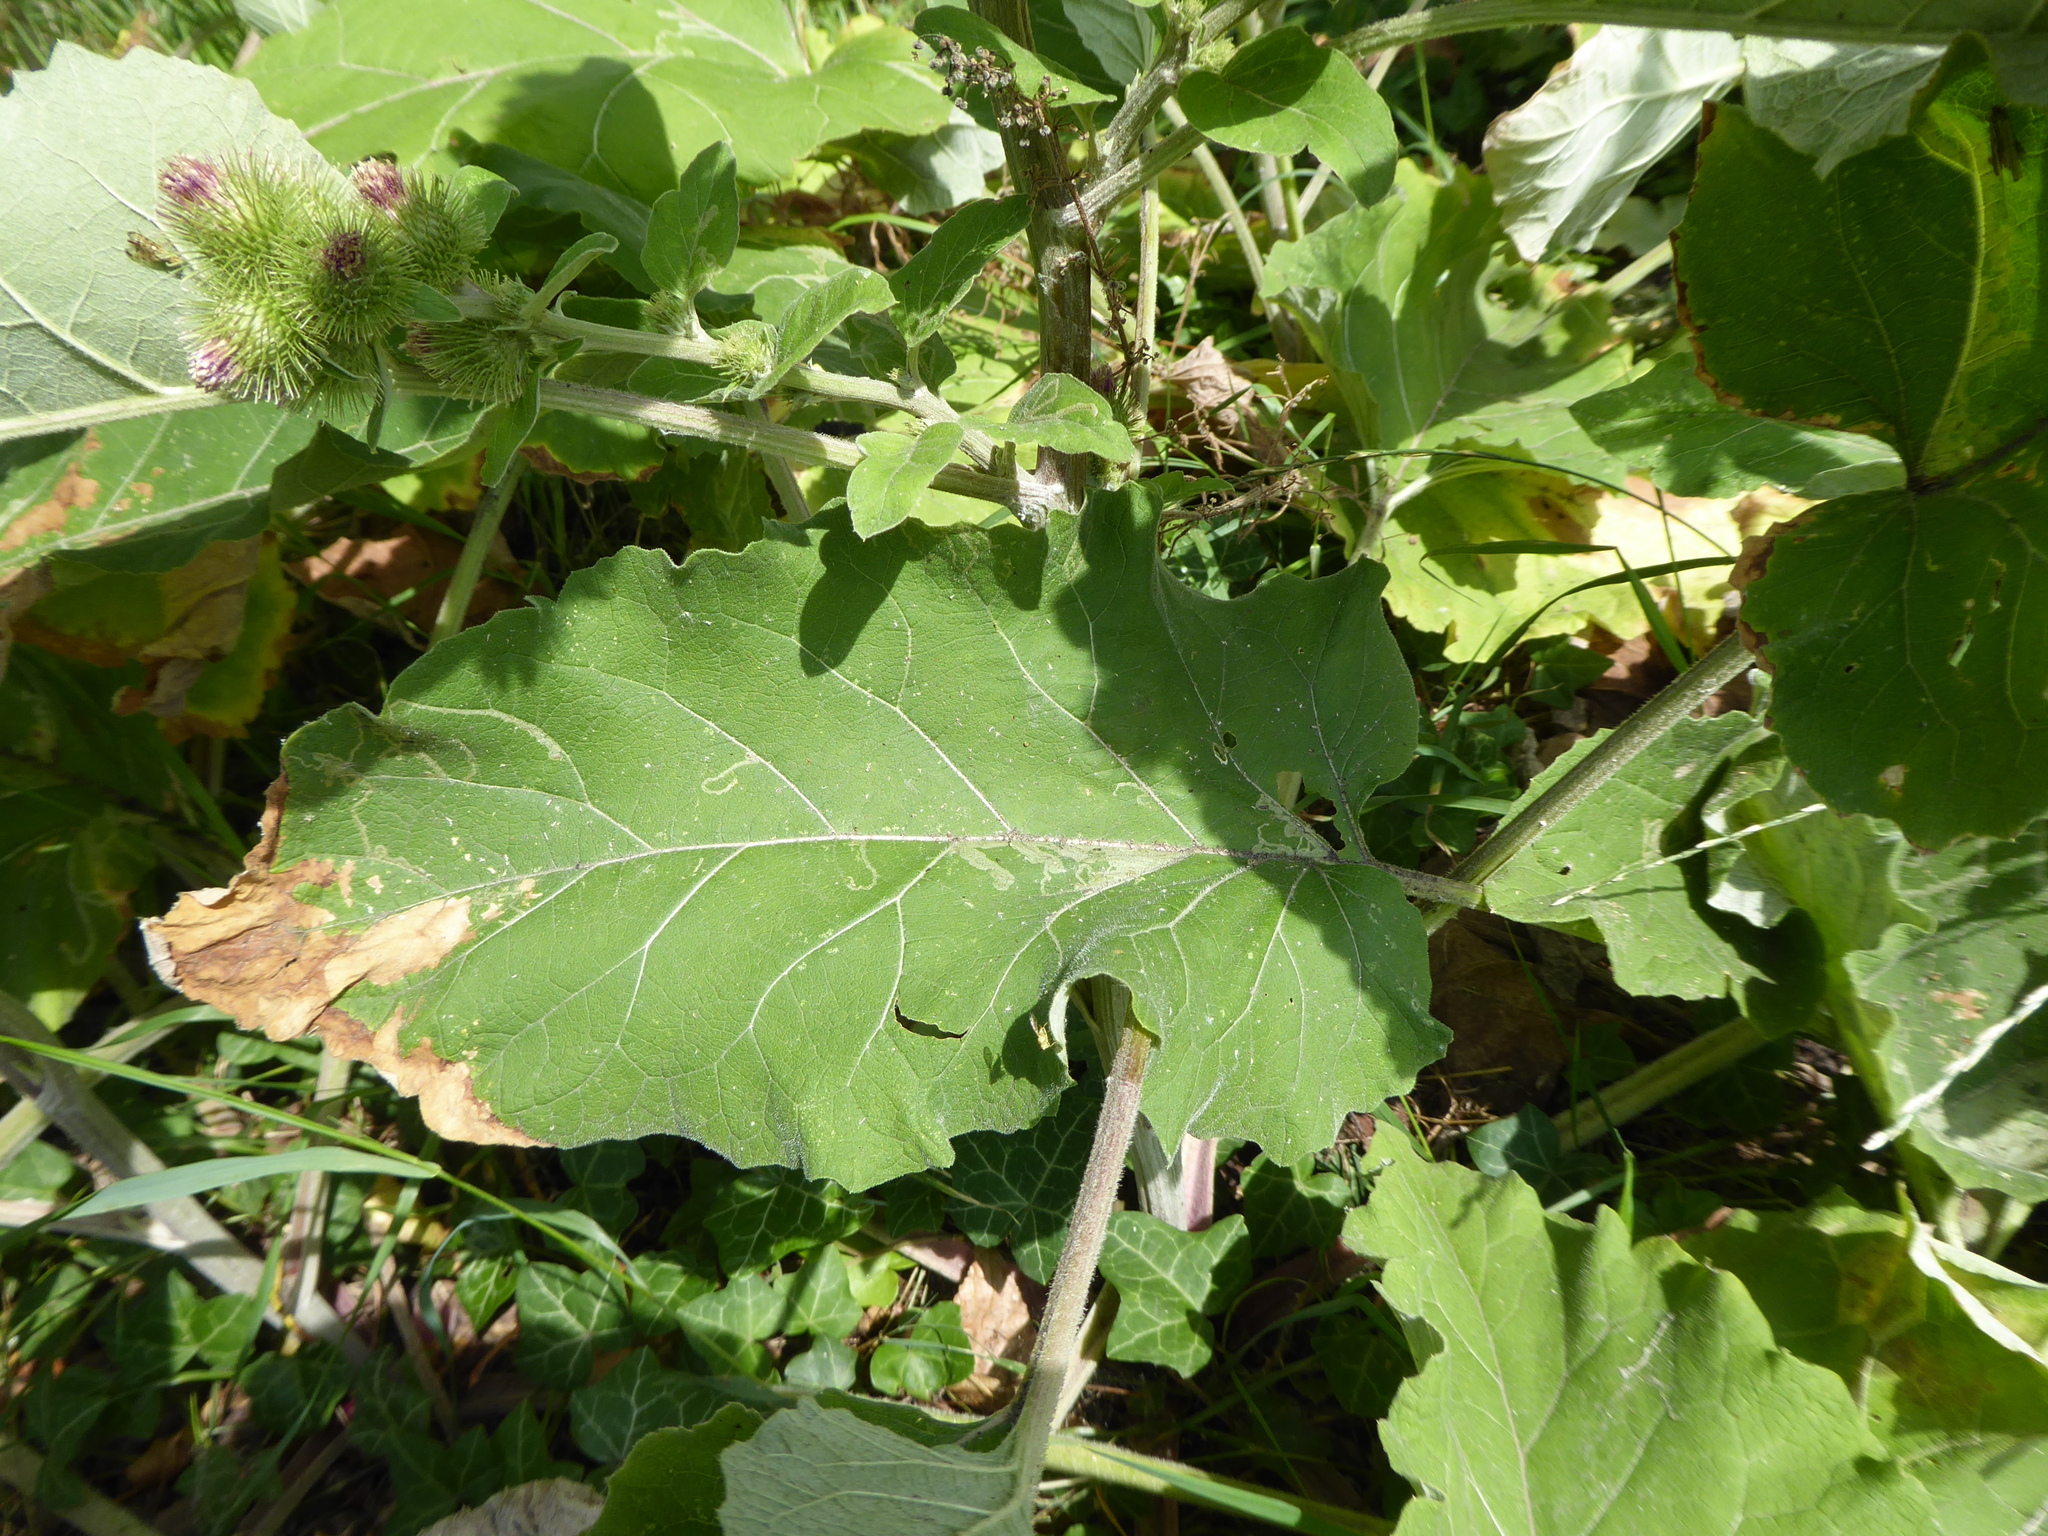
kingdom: Animalia
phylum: Arthropoda
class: Insecta
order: Diptera
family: Agromyzidae
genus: Phytomyza
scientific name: Phytomyza lappae
